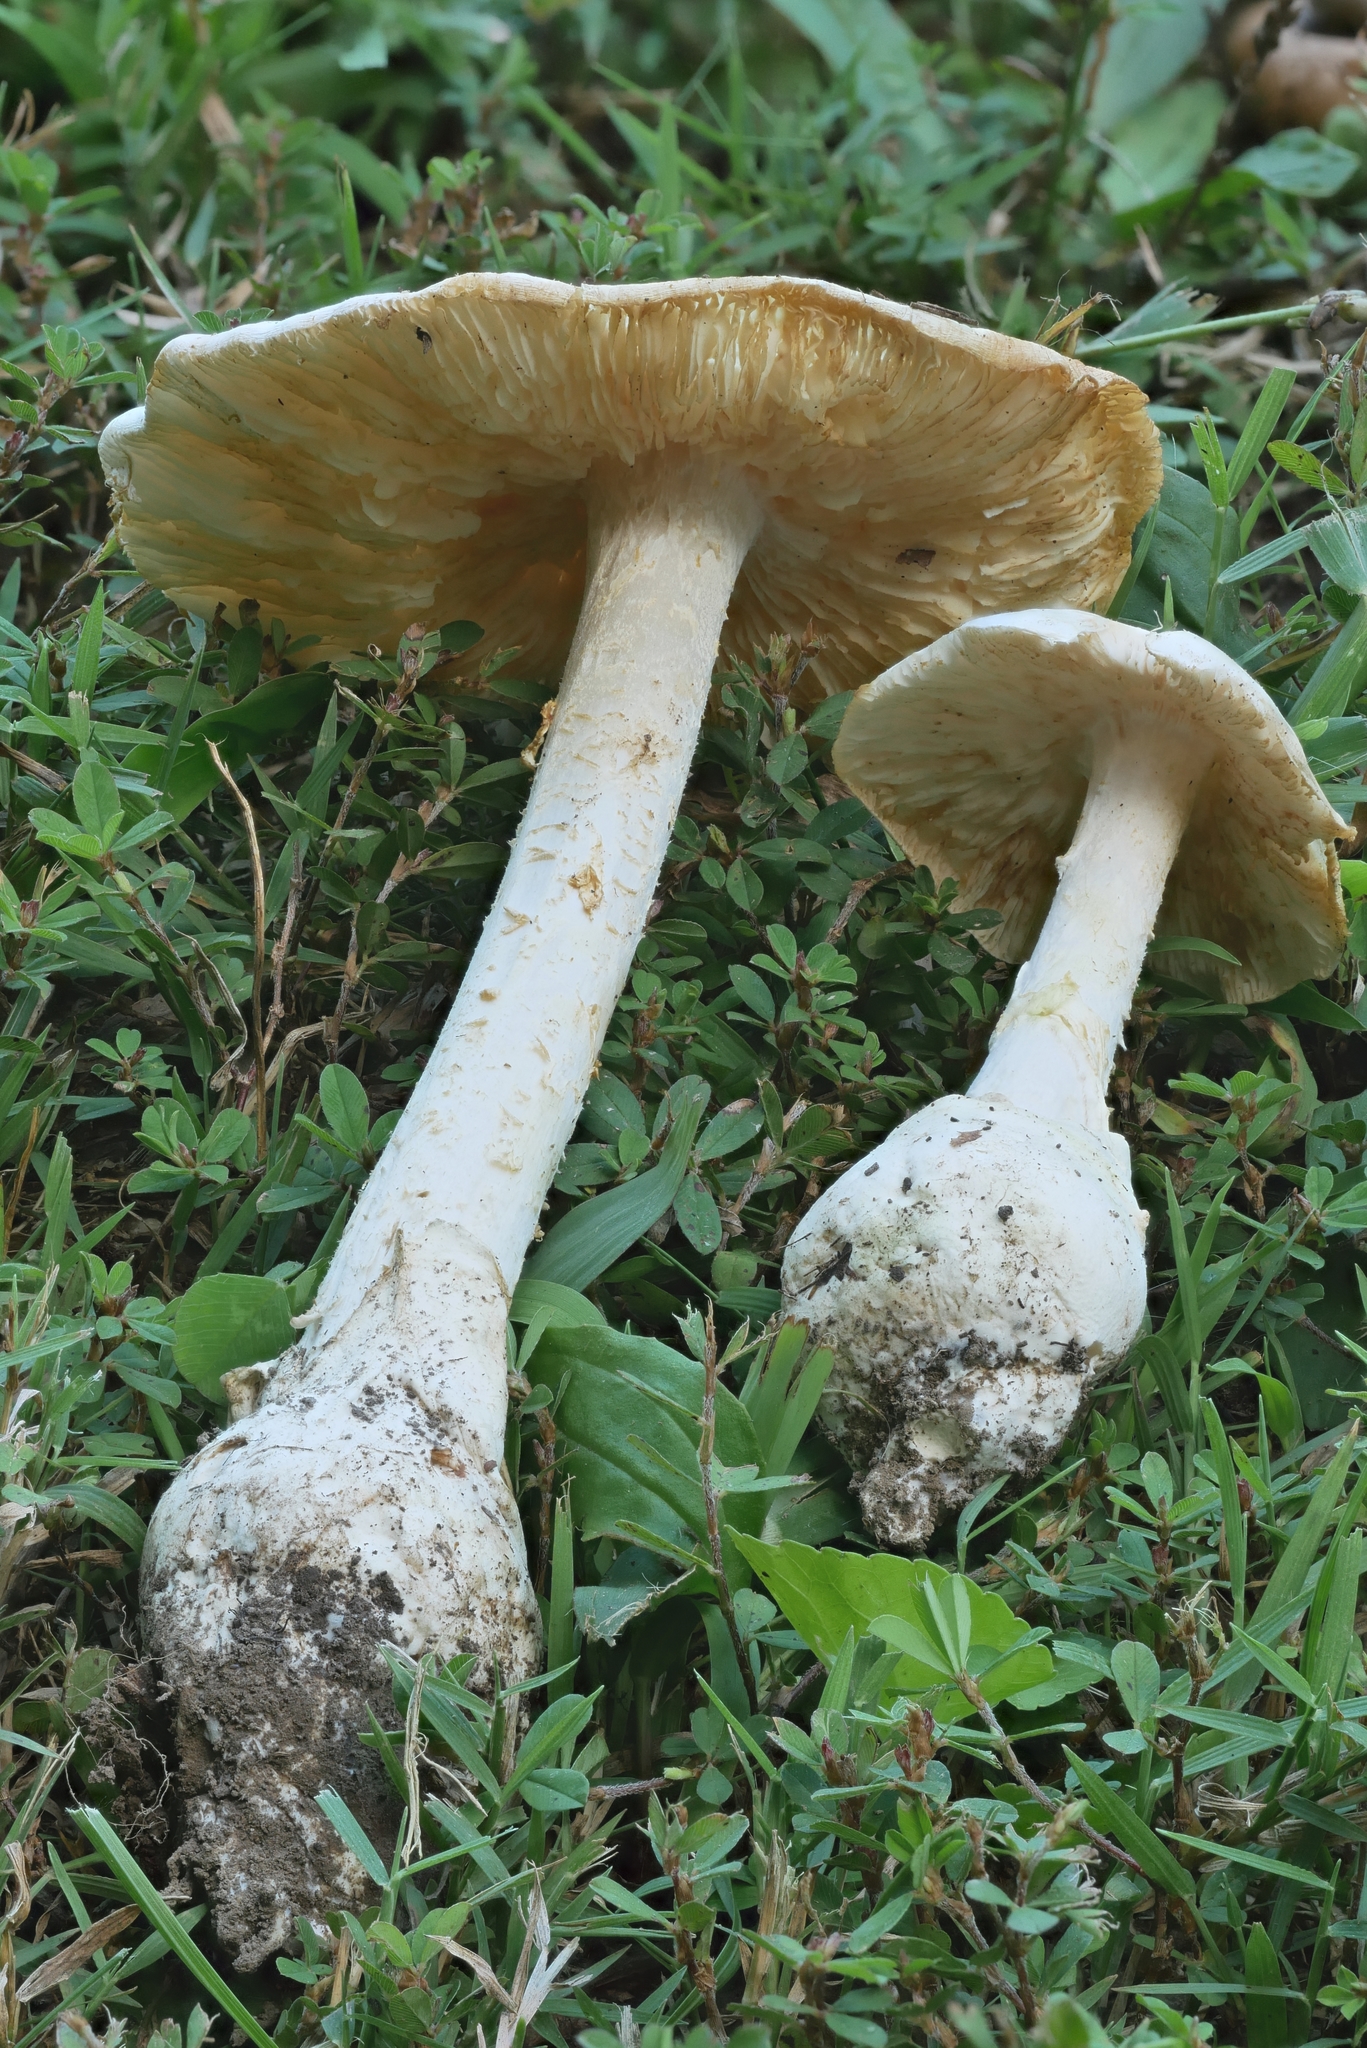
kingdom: Fungi
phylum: Basidiomycota
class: Agaricomycetes
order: Agaricales
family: Amanitaceae
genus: Amanita
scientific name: Amanita elliptosperma
